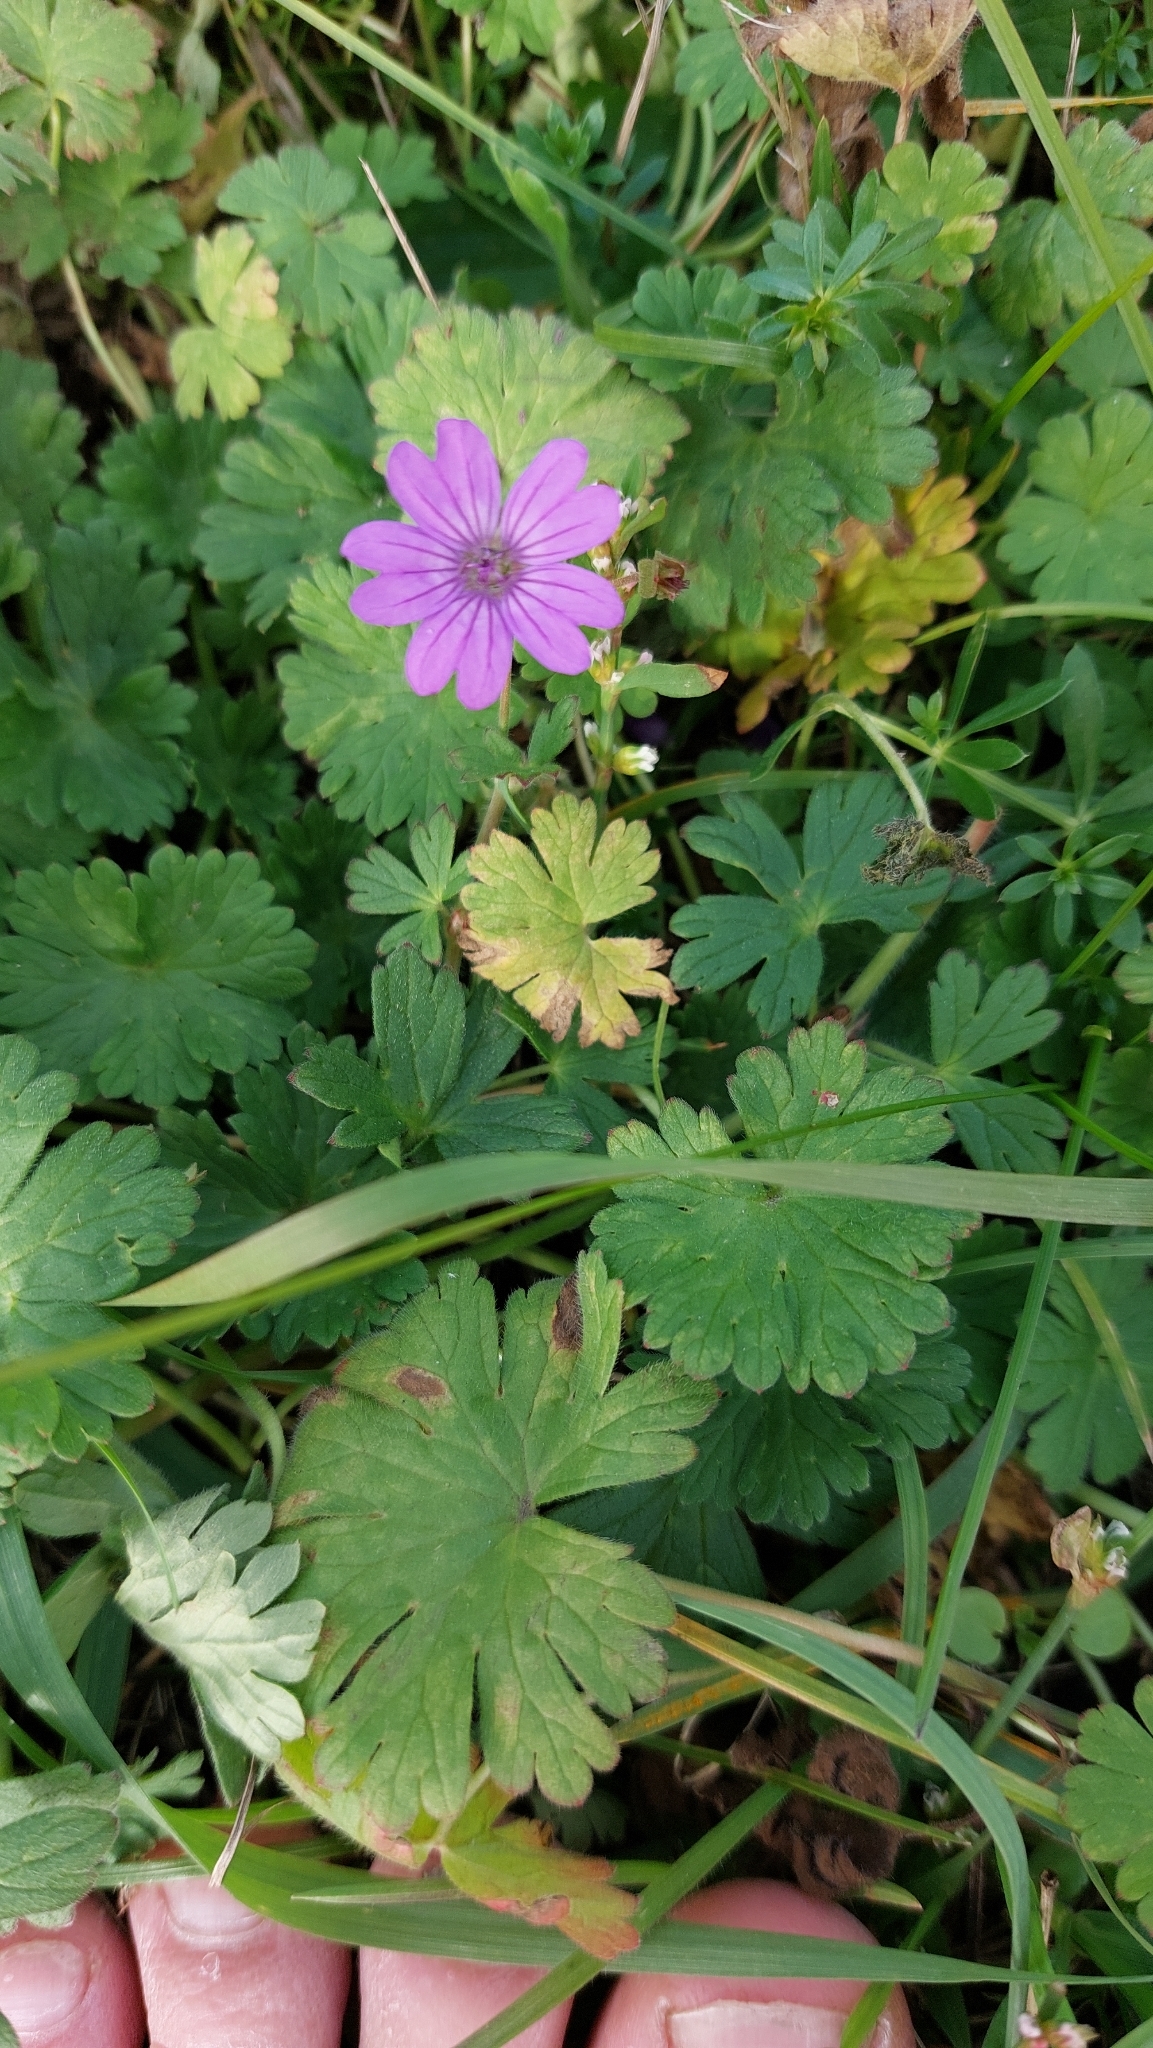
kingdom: Plantae
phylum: Tracheophyta
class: Magnoliopsida
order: Geraniales
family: Geraniaceae
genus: Geranium
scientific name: Geranium pyrenaicum
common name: Hedgerow crane's-bill
